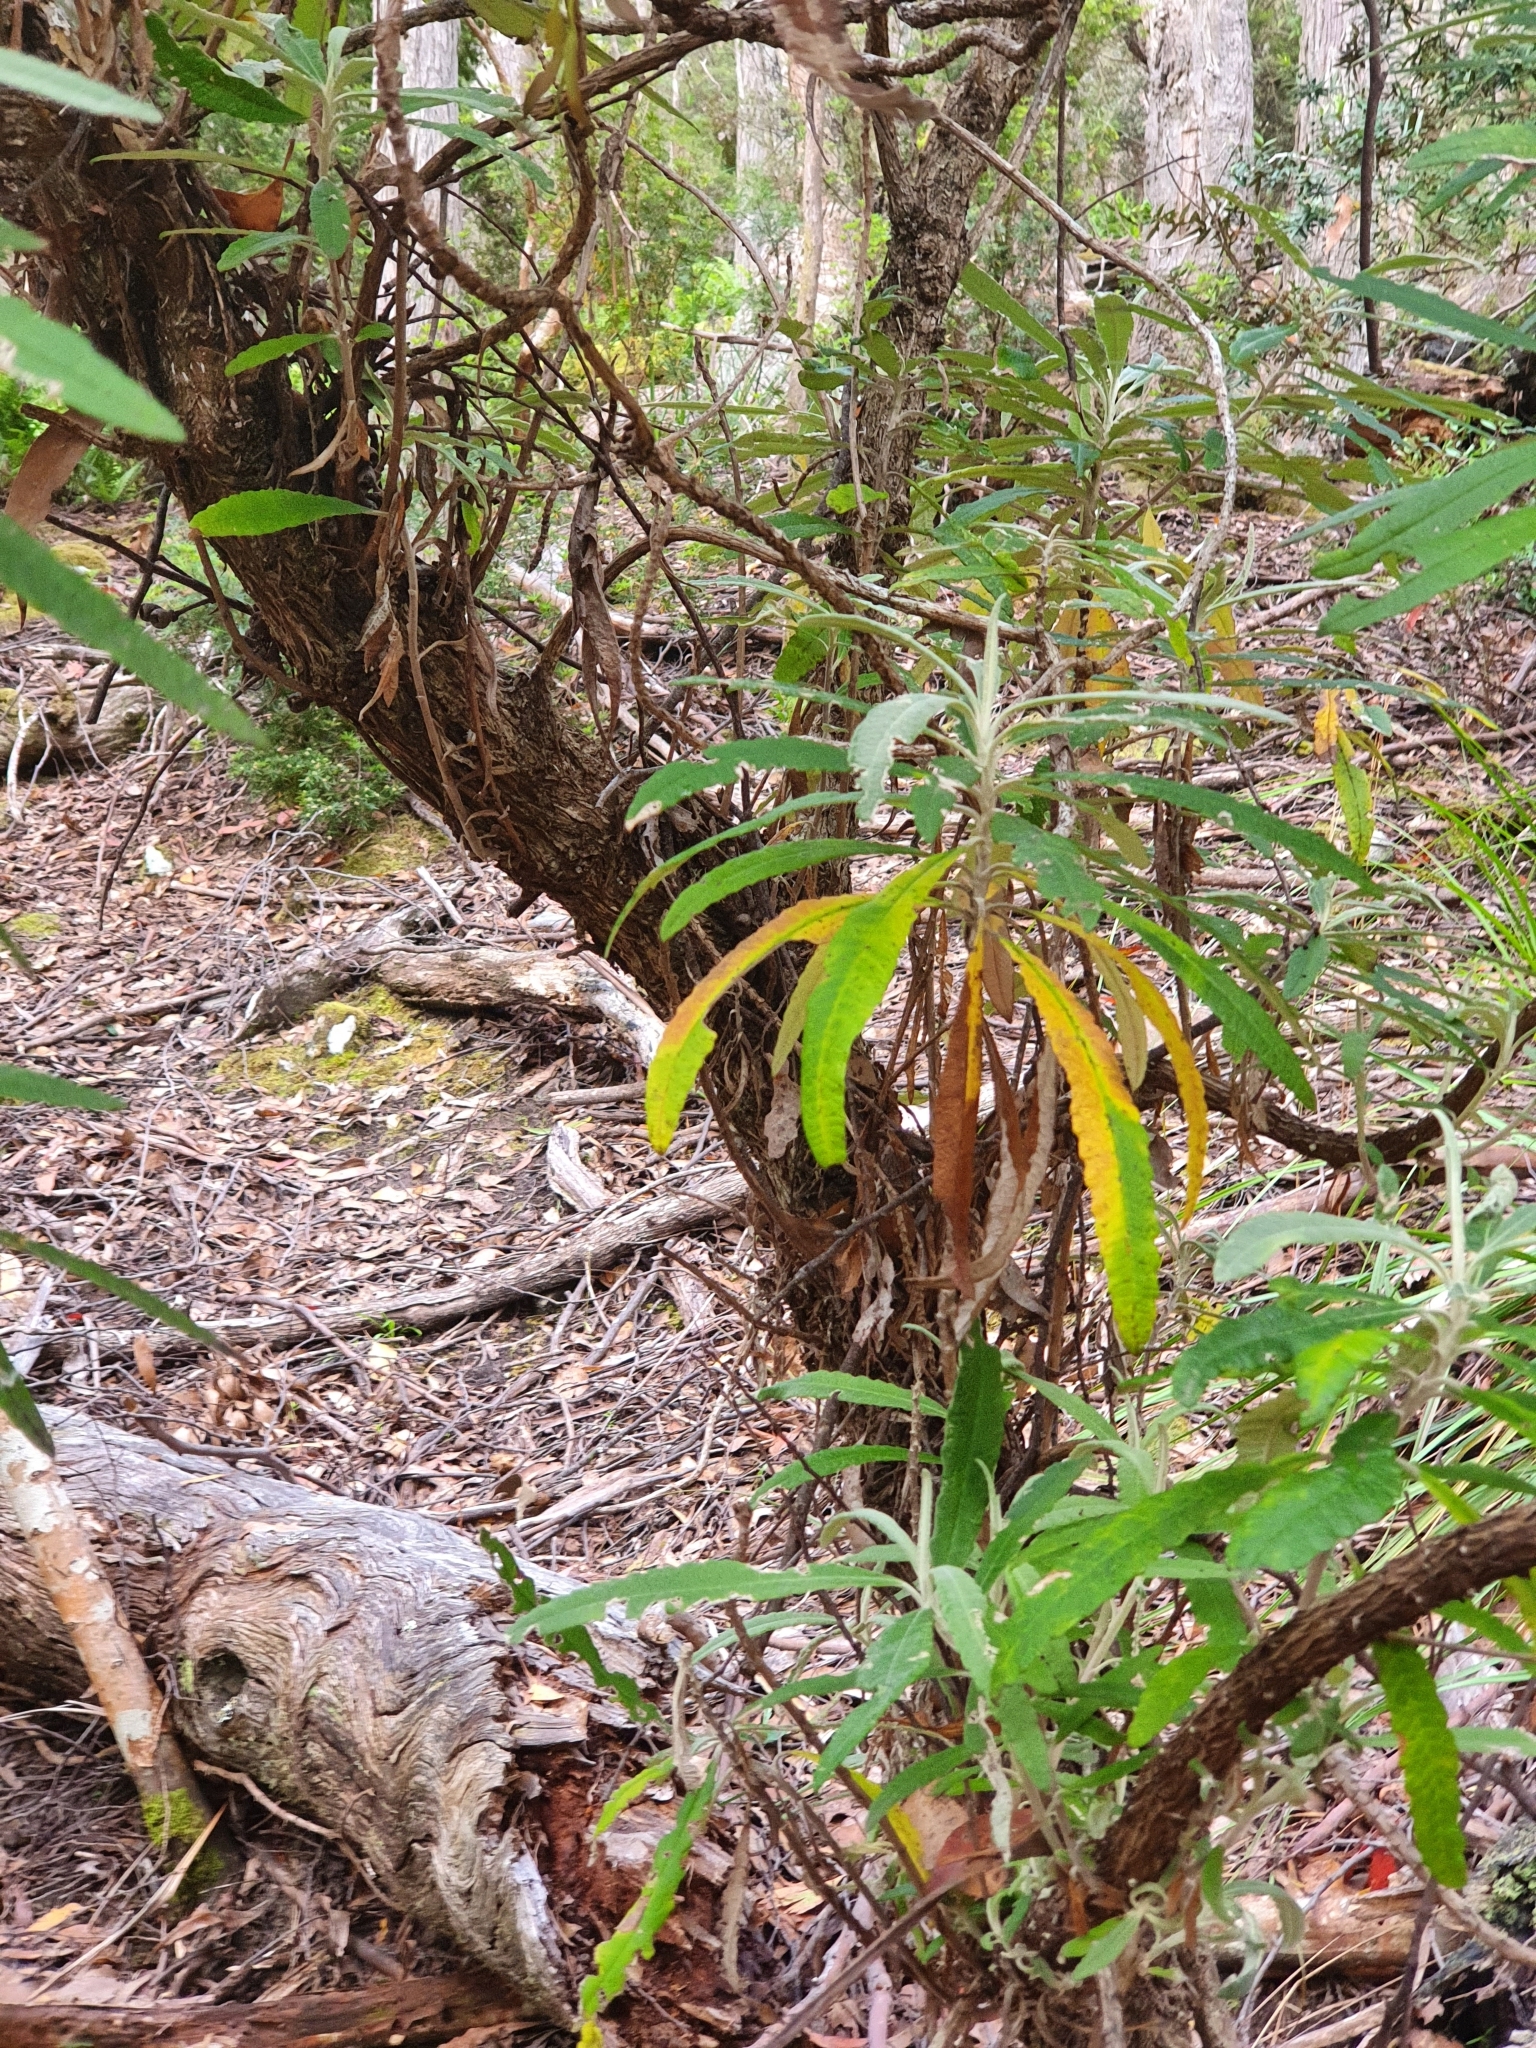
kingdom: Plantae
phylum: Tracheophyta
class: Magnoliopsida
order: Asterales
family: Asteraceae
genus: Bedfordia
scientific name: Bedfordia salicina
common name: Blanketleaf
